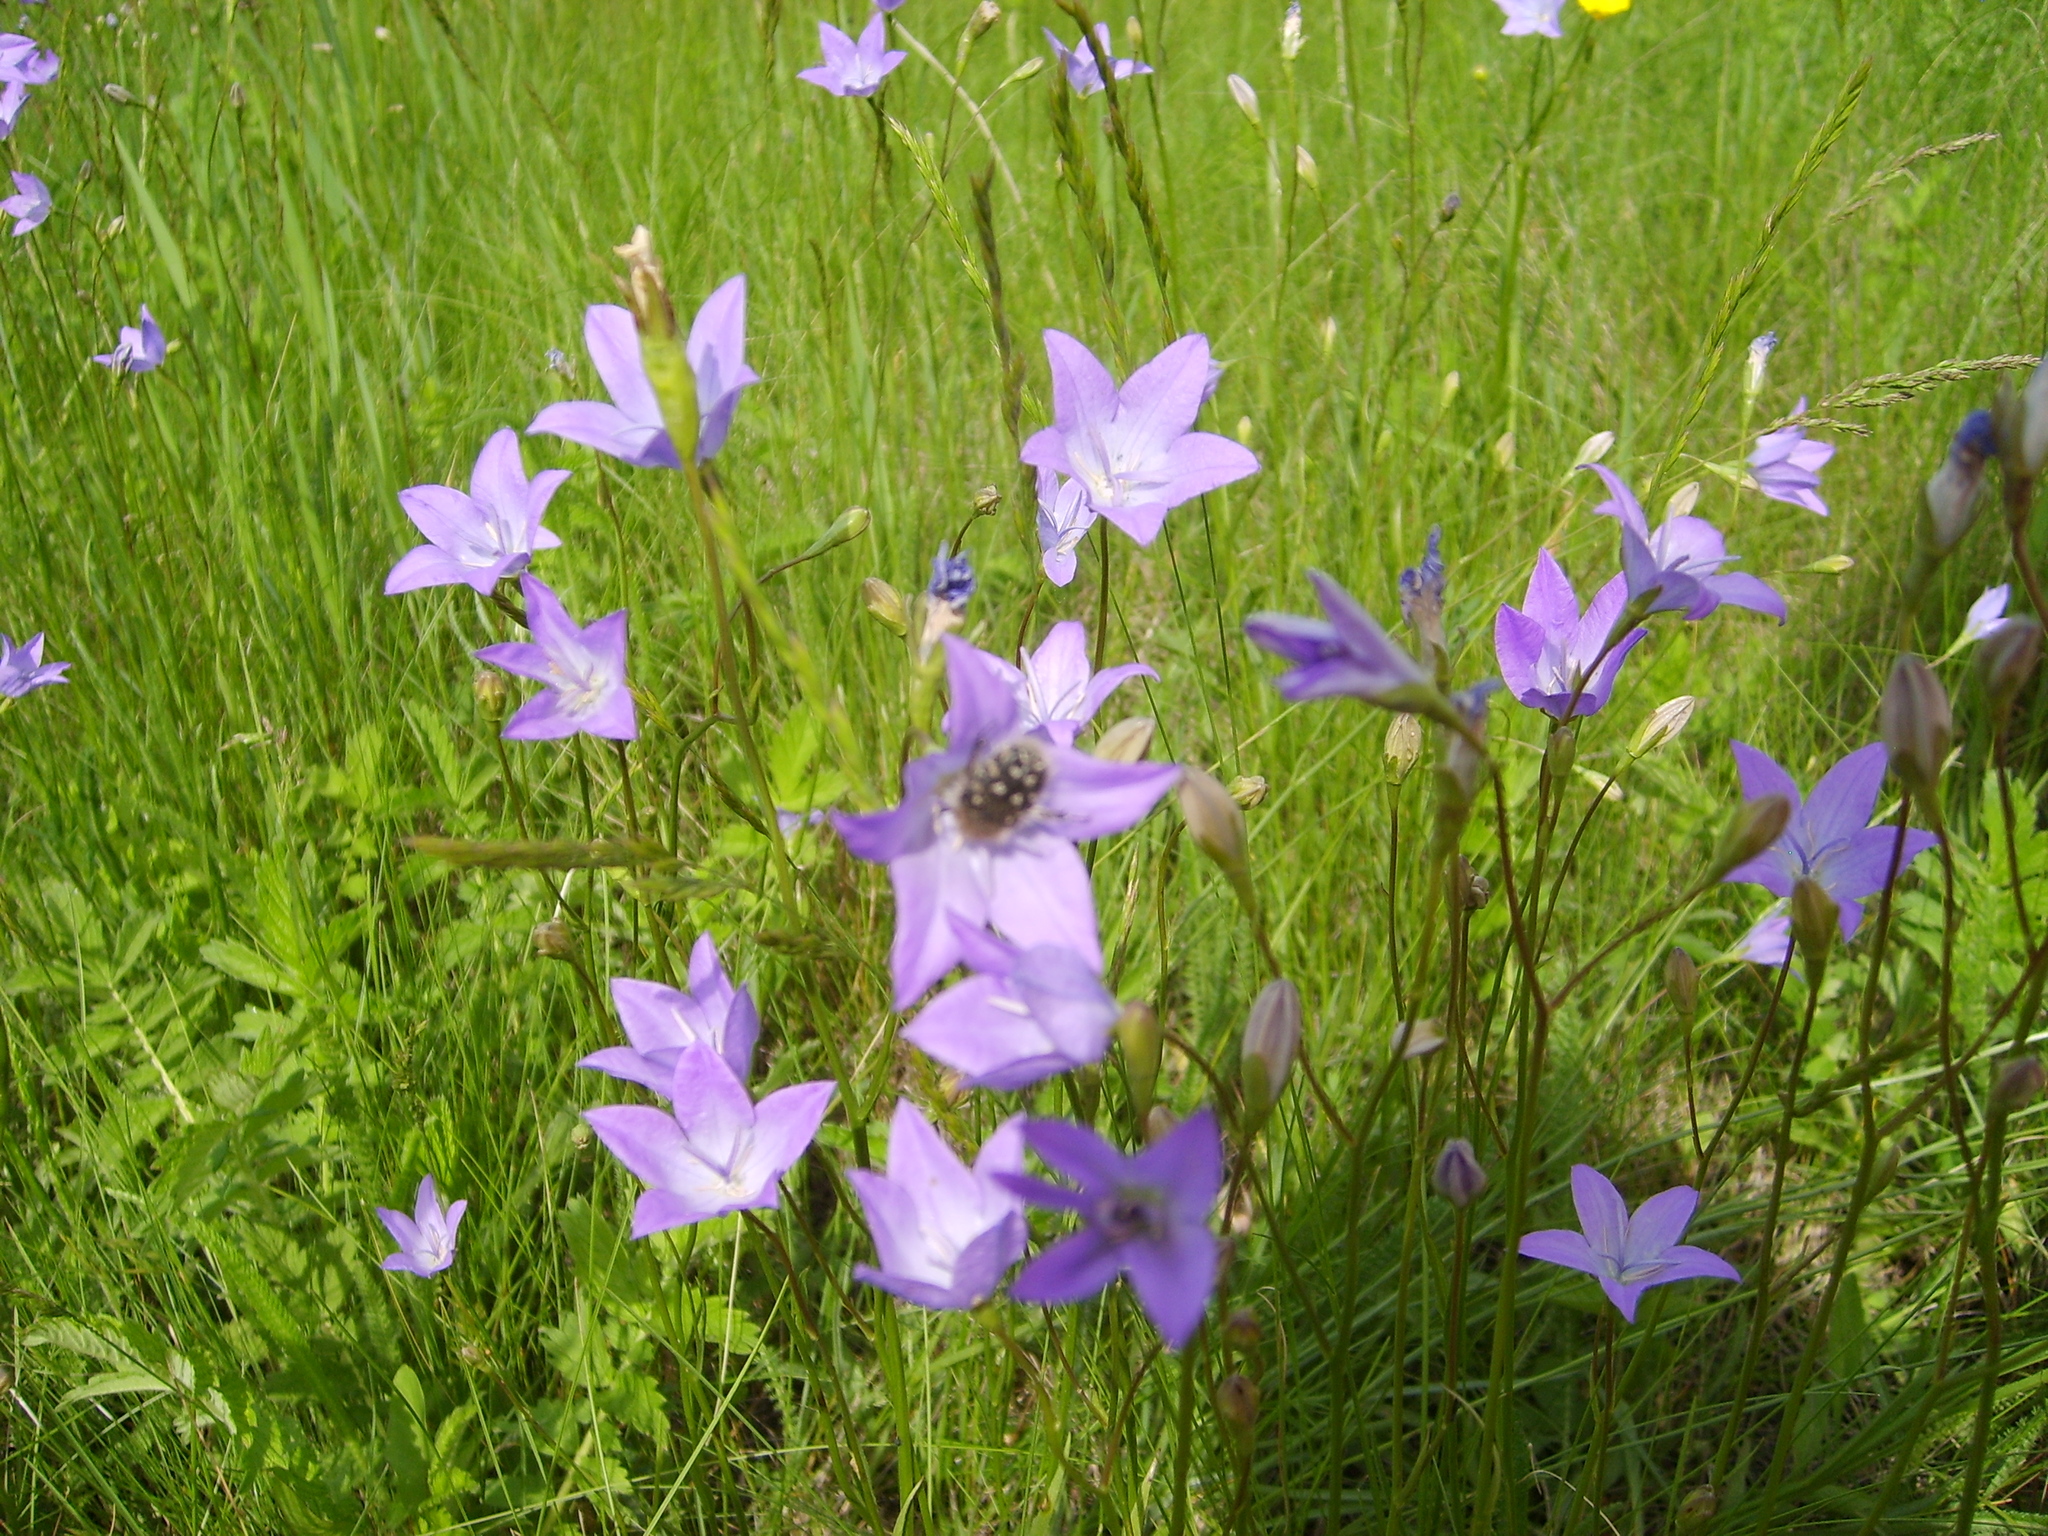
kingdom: Plantae
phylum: Tracheophyta
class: Magnoliopsida
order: Asterales
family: Campanulaceae
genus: Campanula
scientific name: Campanula stevenii
